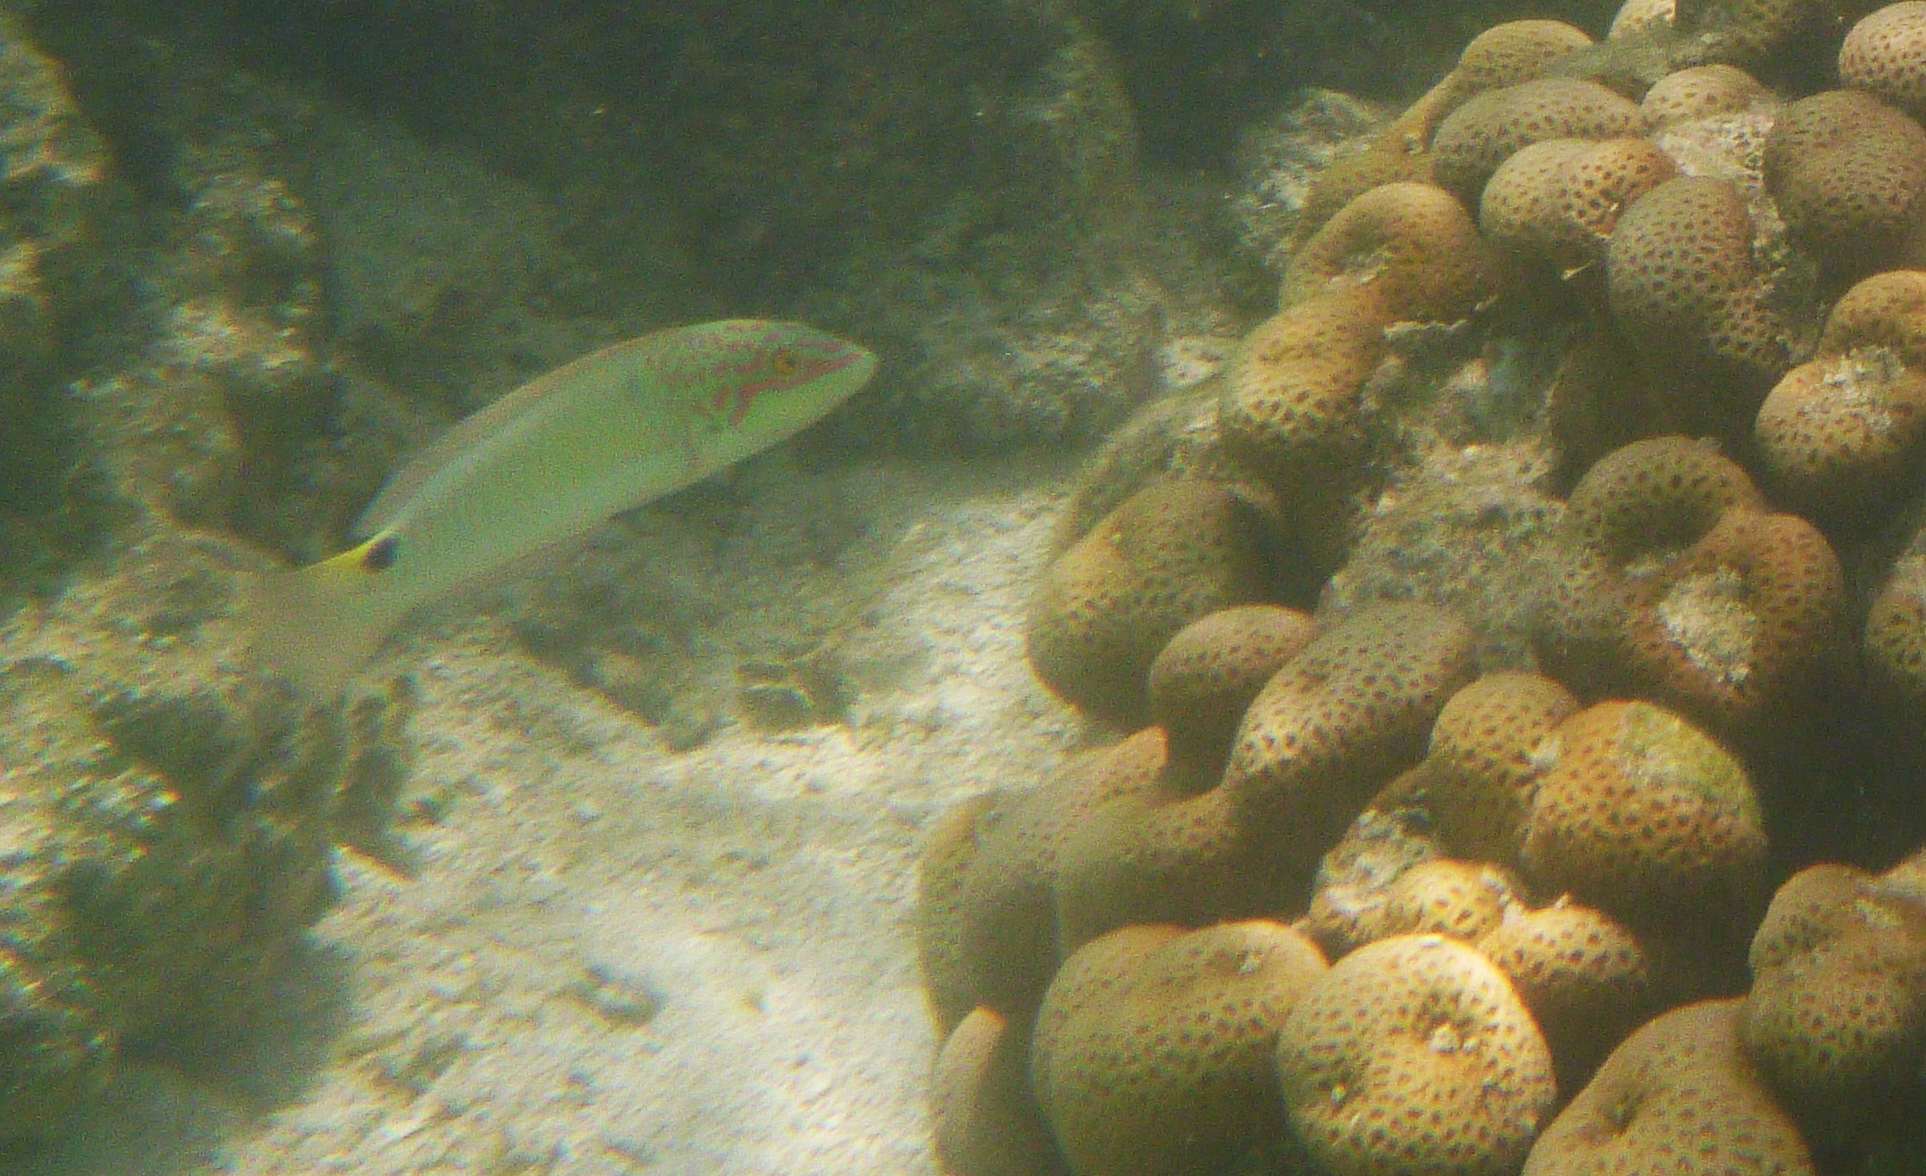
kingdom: Animalia
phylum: Chordata
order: Perciformes
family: Labridae
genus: Halichoeres
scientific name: Halichoeres trimaculatus
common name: Three-spot wrasse
